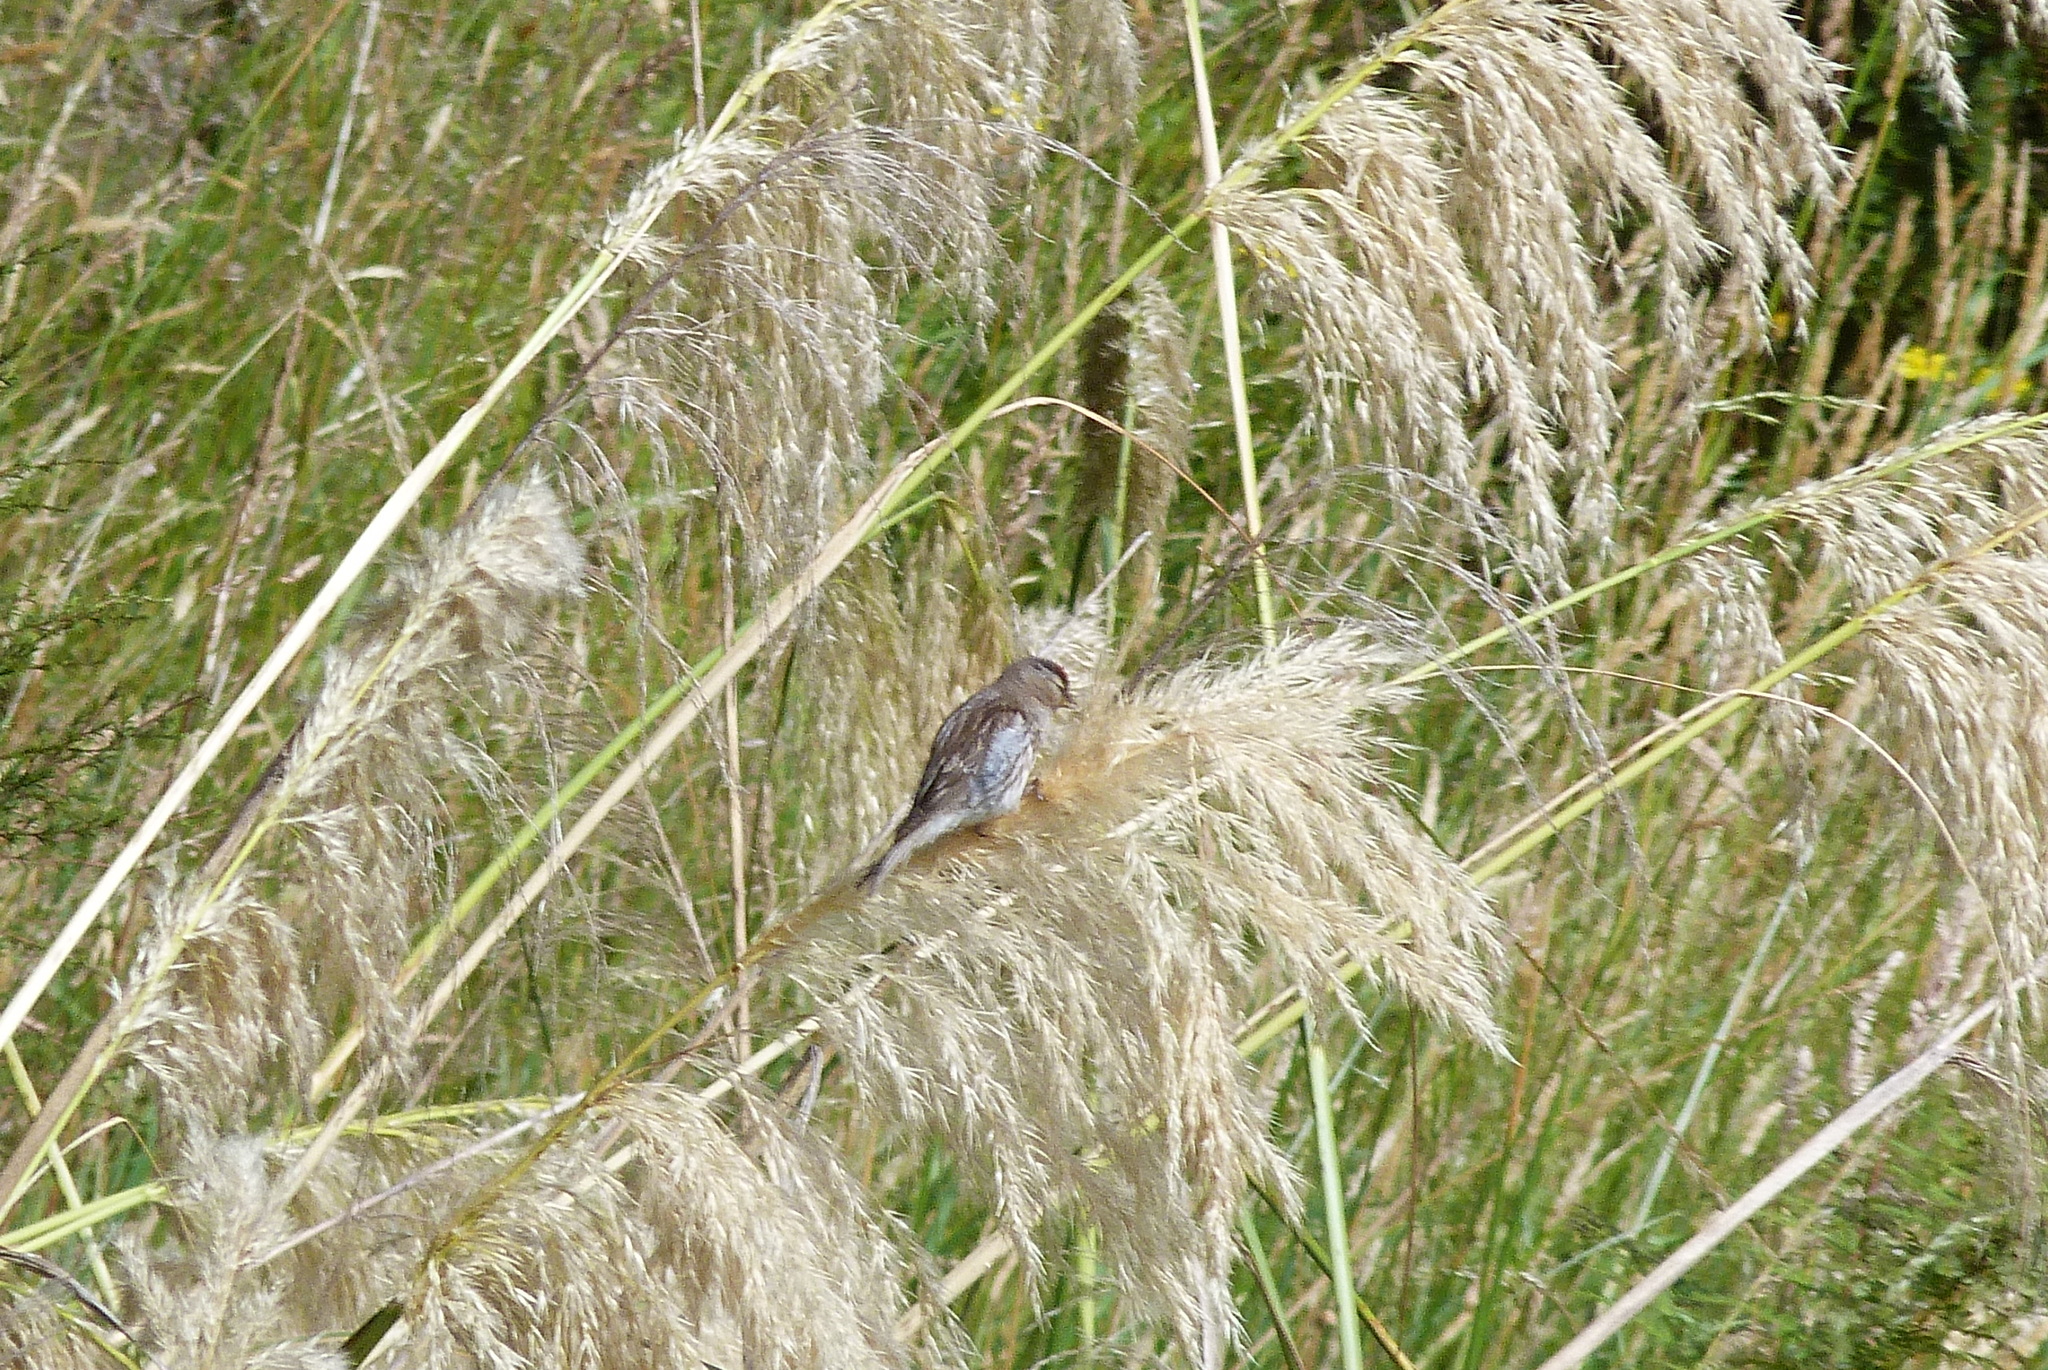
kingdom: Animalia
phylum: Chordata
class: Aves
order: Passeriformes
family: Fringillidae
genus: Acanthis
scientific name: Acanthis flammea
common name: Common redpoll
